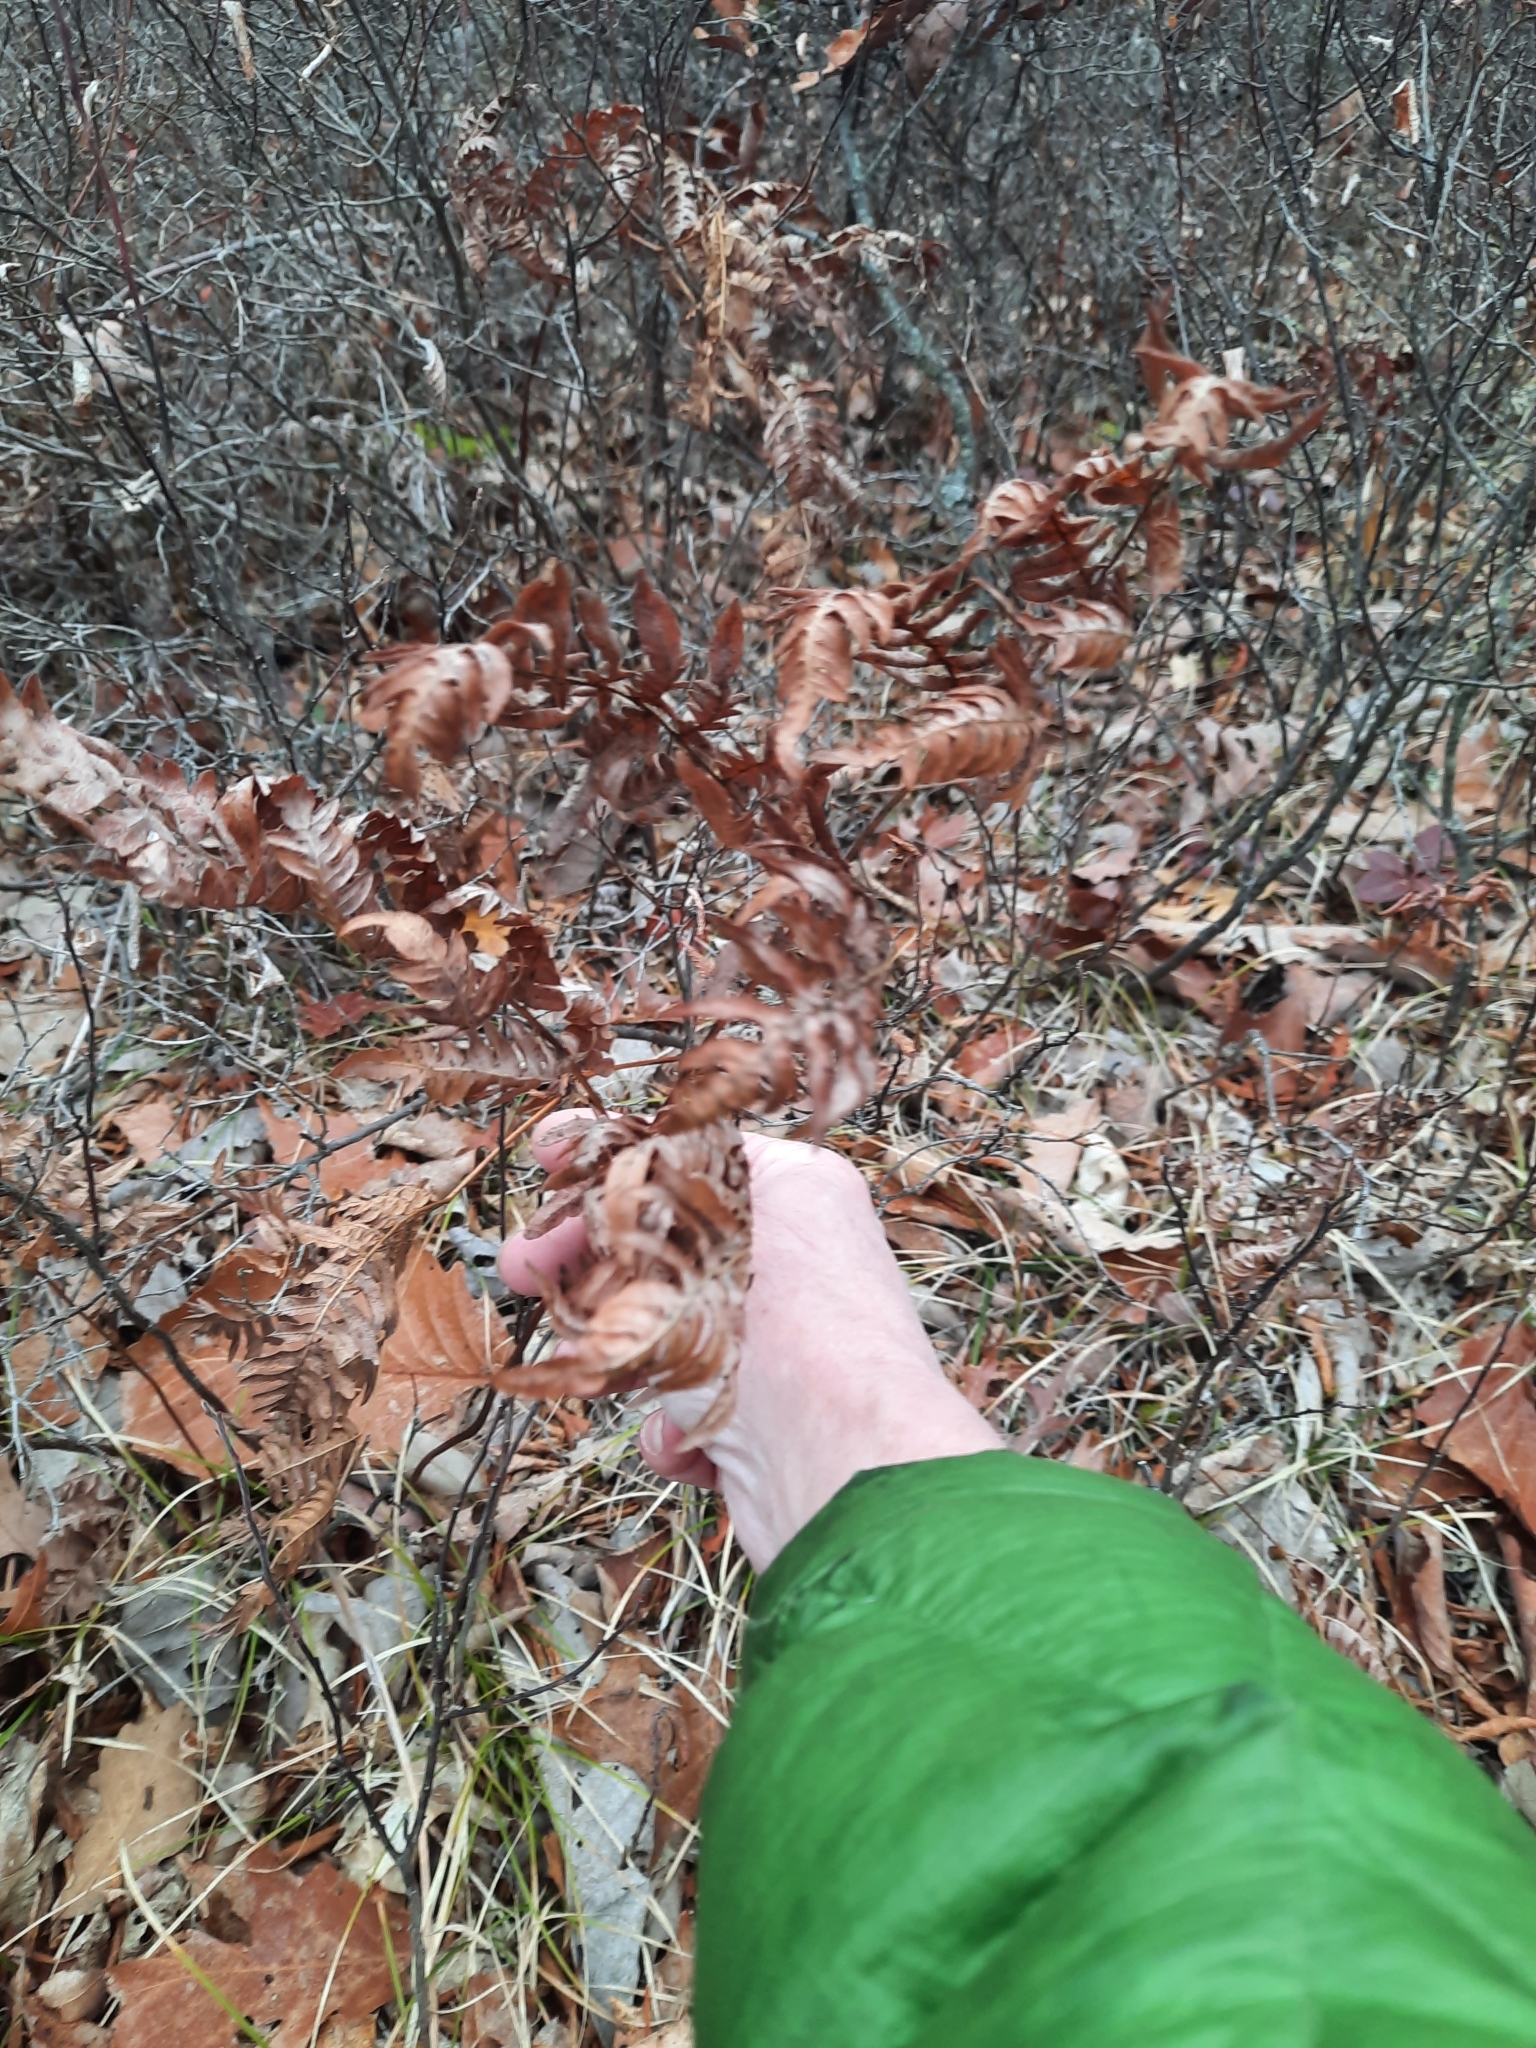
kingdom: Plantae
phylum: Tracheophyta
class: Polypodiopsida
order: Polypodiales
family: Dennstaedtiaceae
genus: Pteridium
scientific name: Pteridium aquilinum
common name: Bracken
